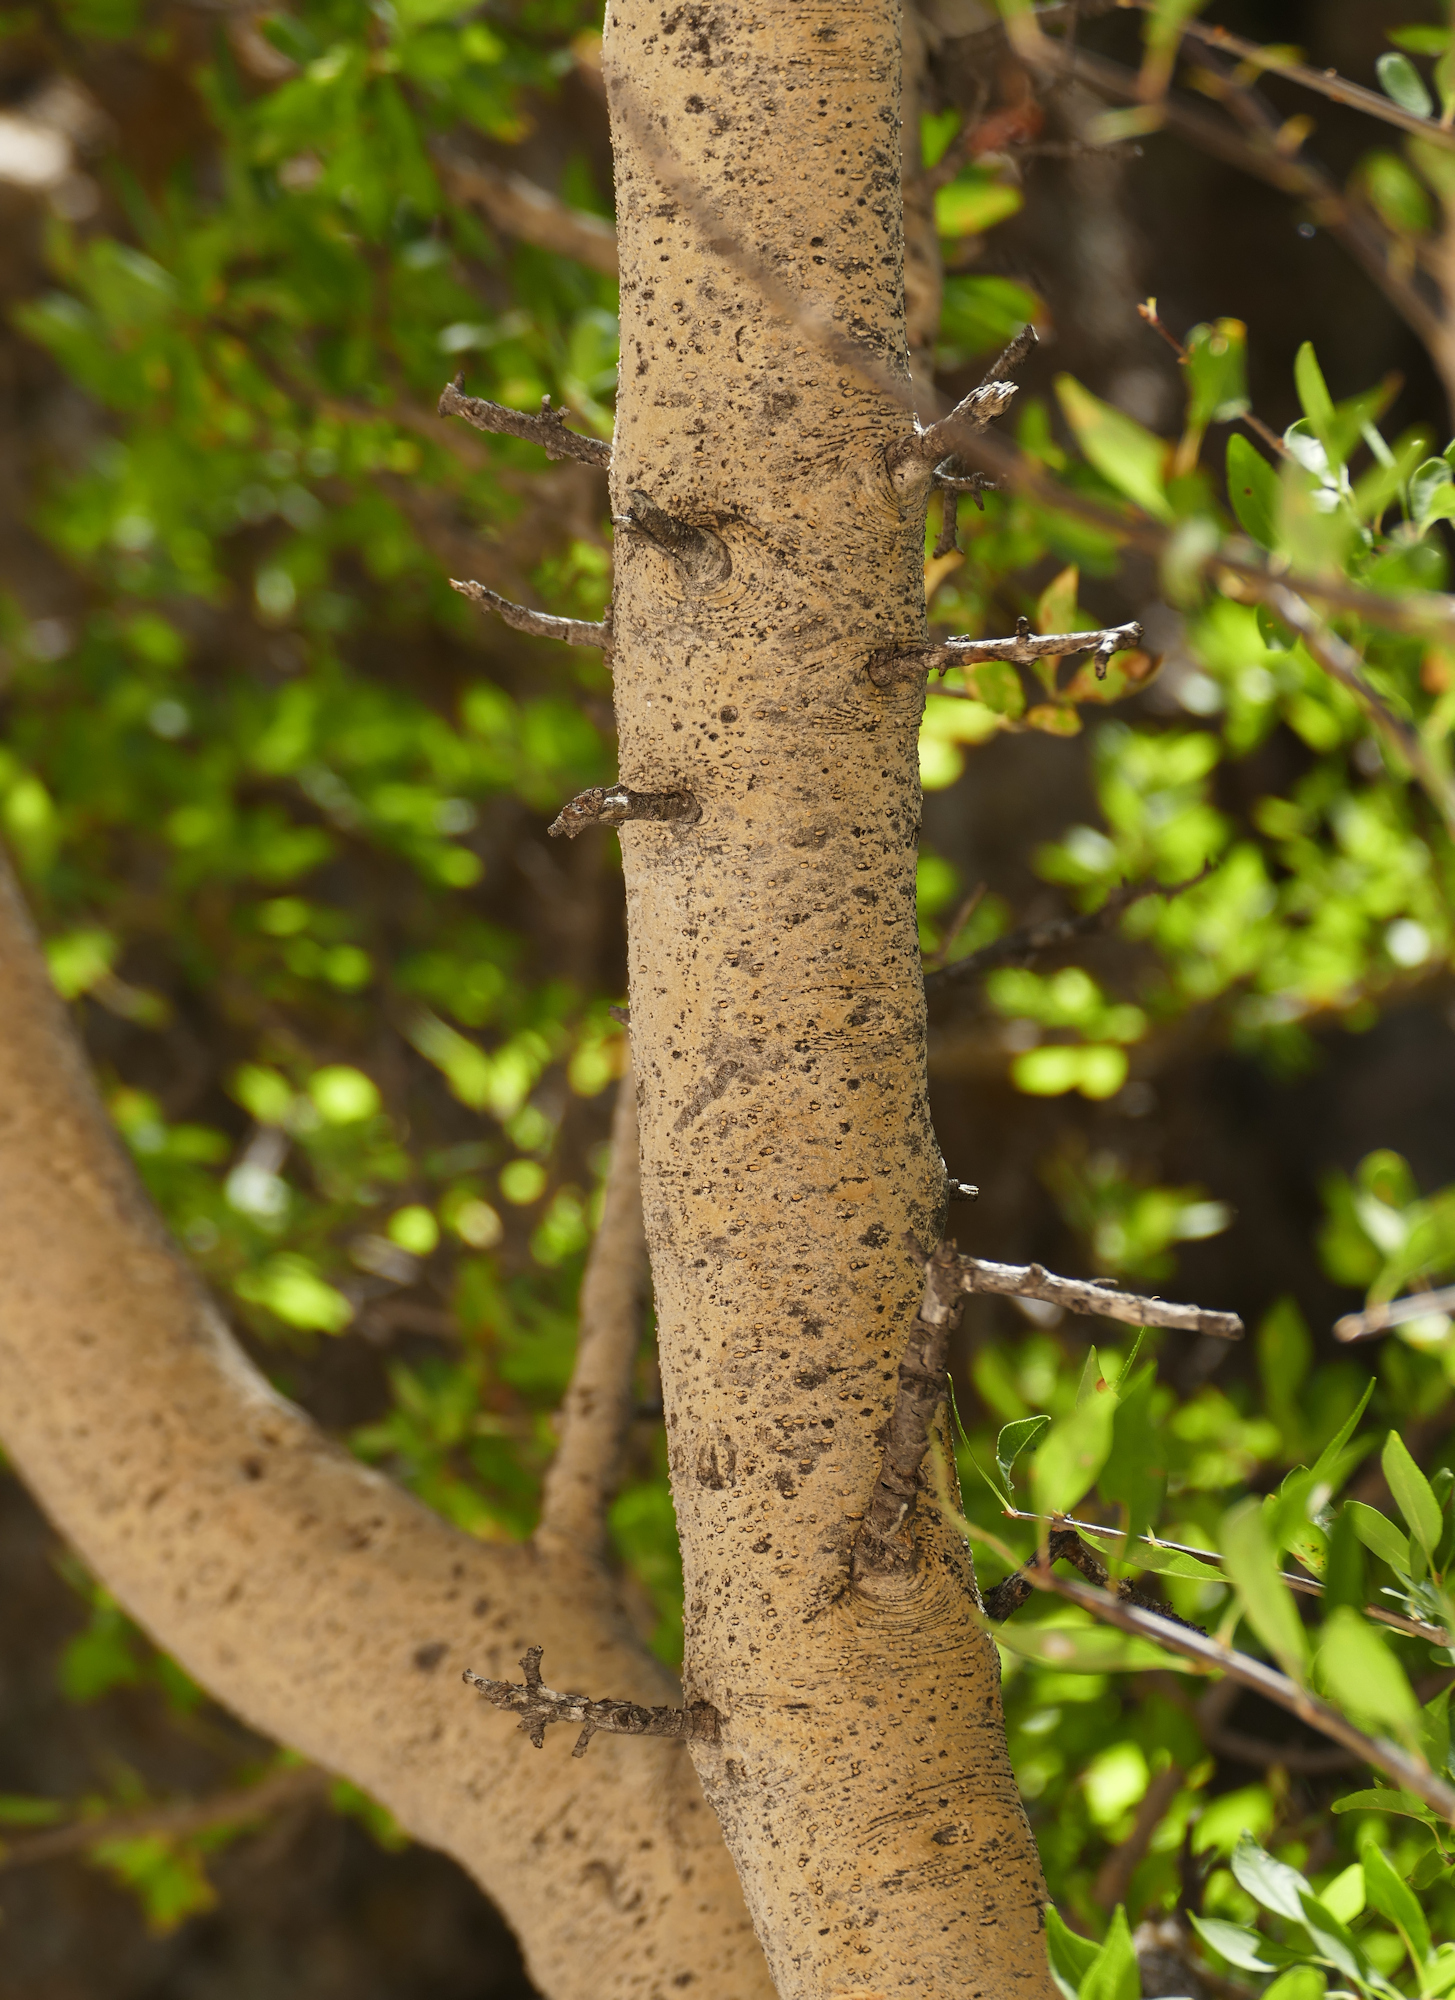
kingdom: Plantae
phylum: Tracheophyta
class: Magnoliopsida
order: Lamiales
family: Oleaceae
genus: Forestiera
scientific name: Forestiera pubescens
